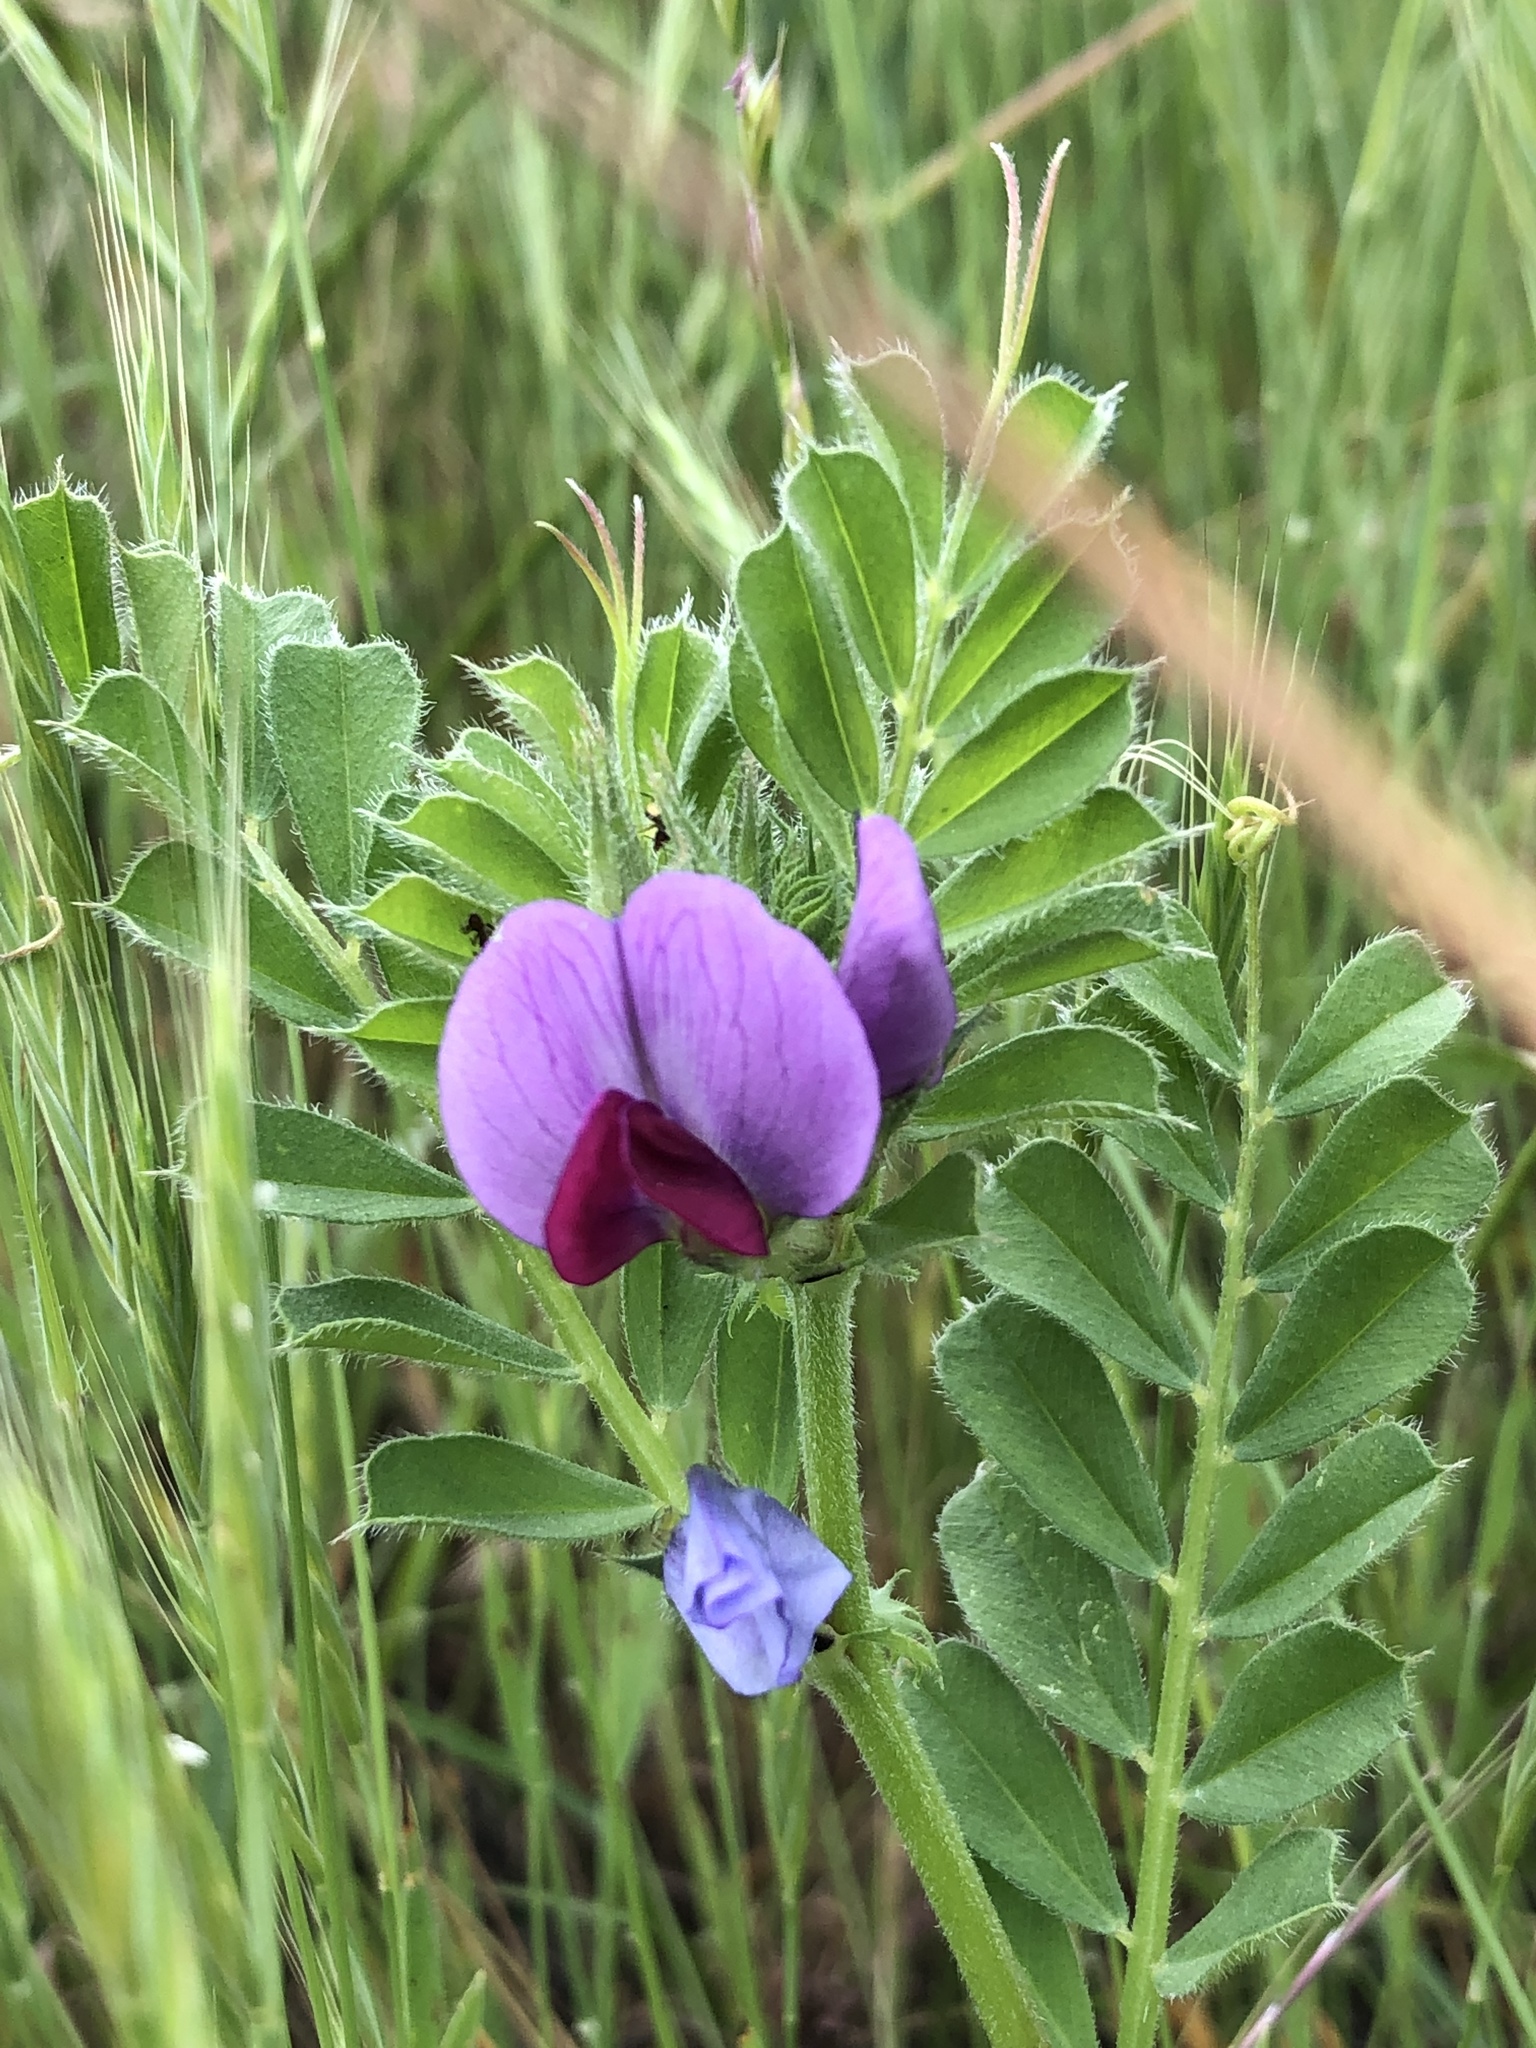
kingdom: Plantae
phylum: Tracheophyta
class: Magnoliopsida
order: Fabales
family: Fabaceae
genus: Vicia
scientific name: Vicia sativa
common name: Garden vetch
